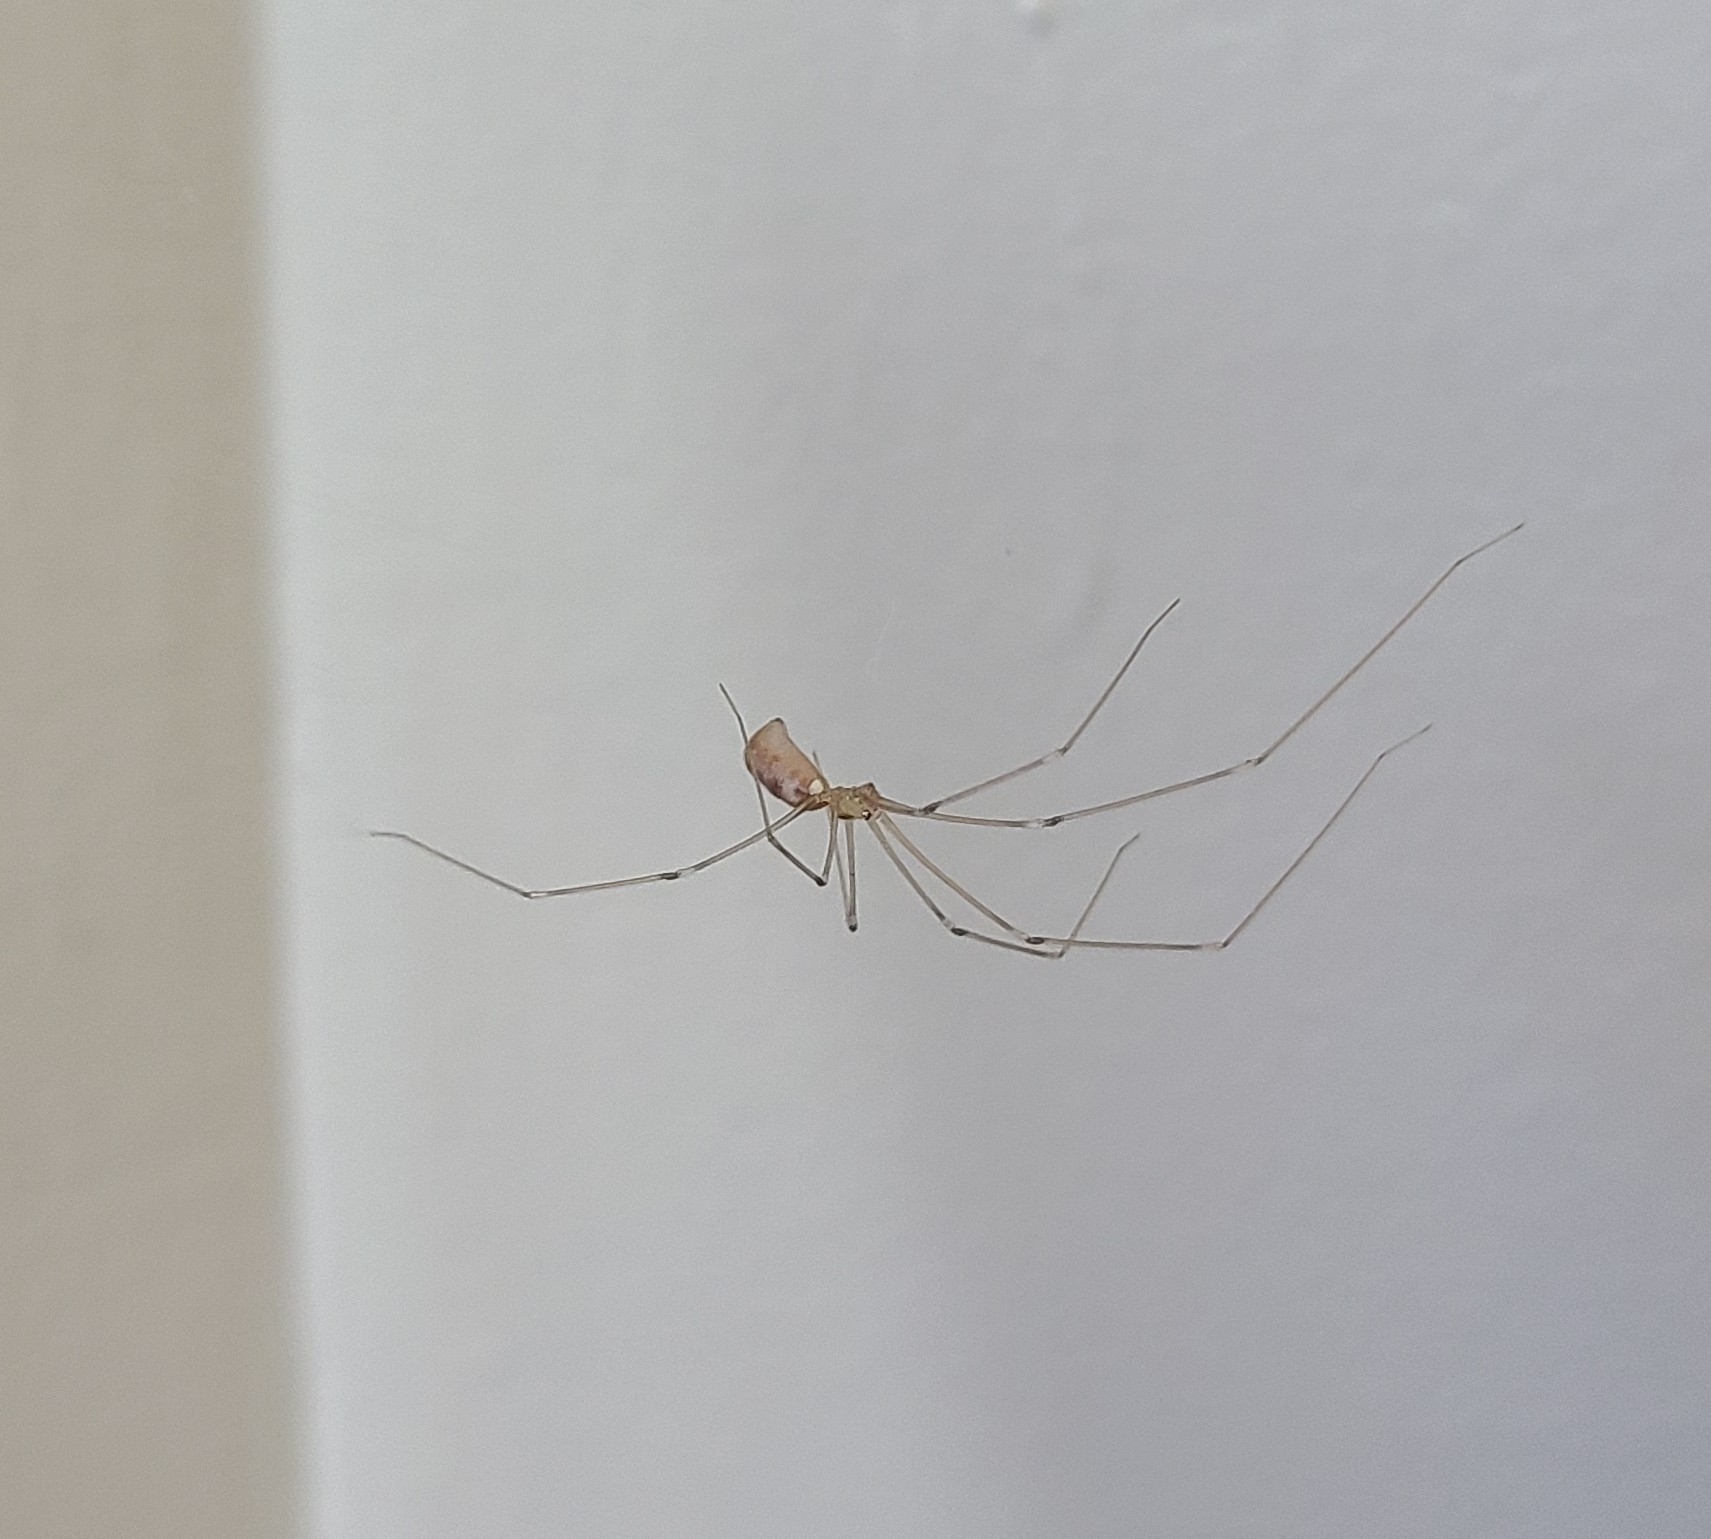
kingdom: Animalia
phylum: Arthropoda
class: Arachnida
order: Araneae
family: Pholcidae
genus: Pholcus
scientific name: Pholcus phalangioides
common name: Longbodied cellar spider
